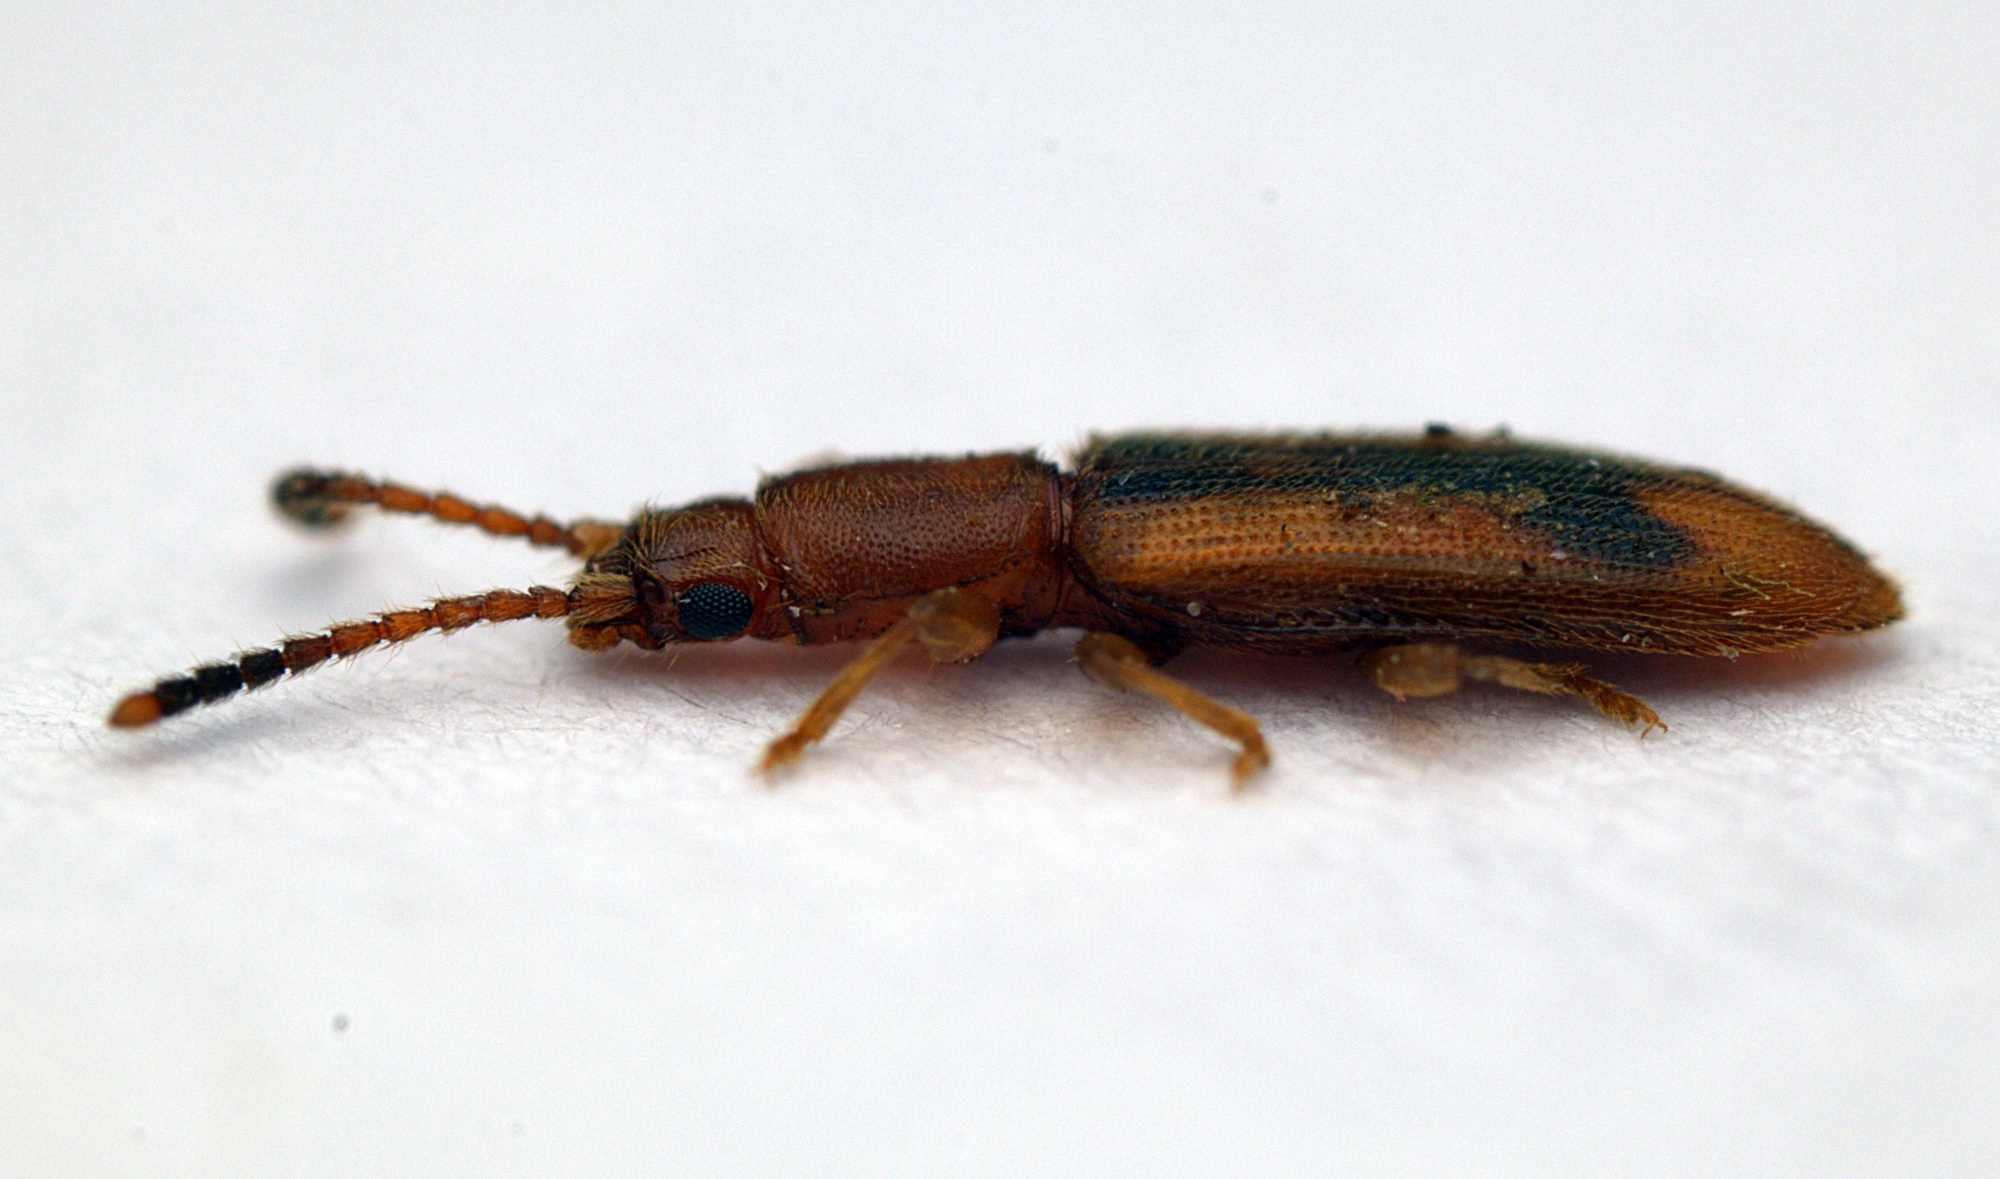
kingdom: Animalia
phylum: Arthropoda
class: Insecta
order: Coleoptera
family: Silvanidae
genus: Cryptamorpha
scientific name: Cryptamorpha desjardinsi
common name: Cryptamorpha
